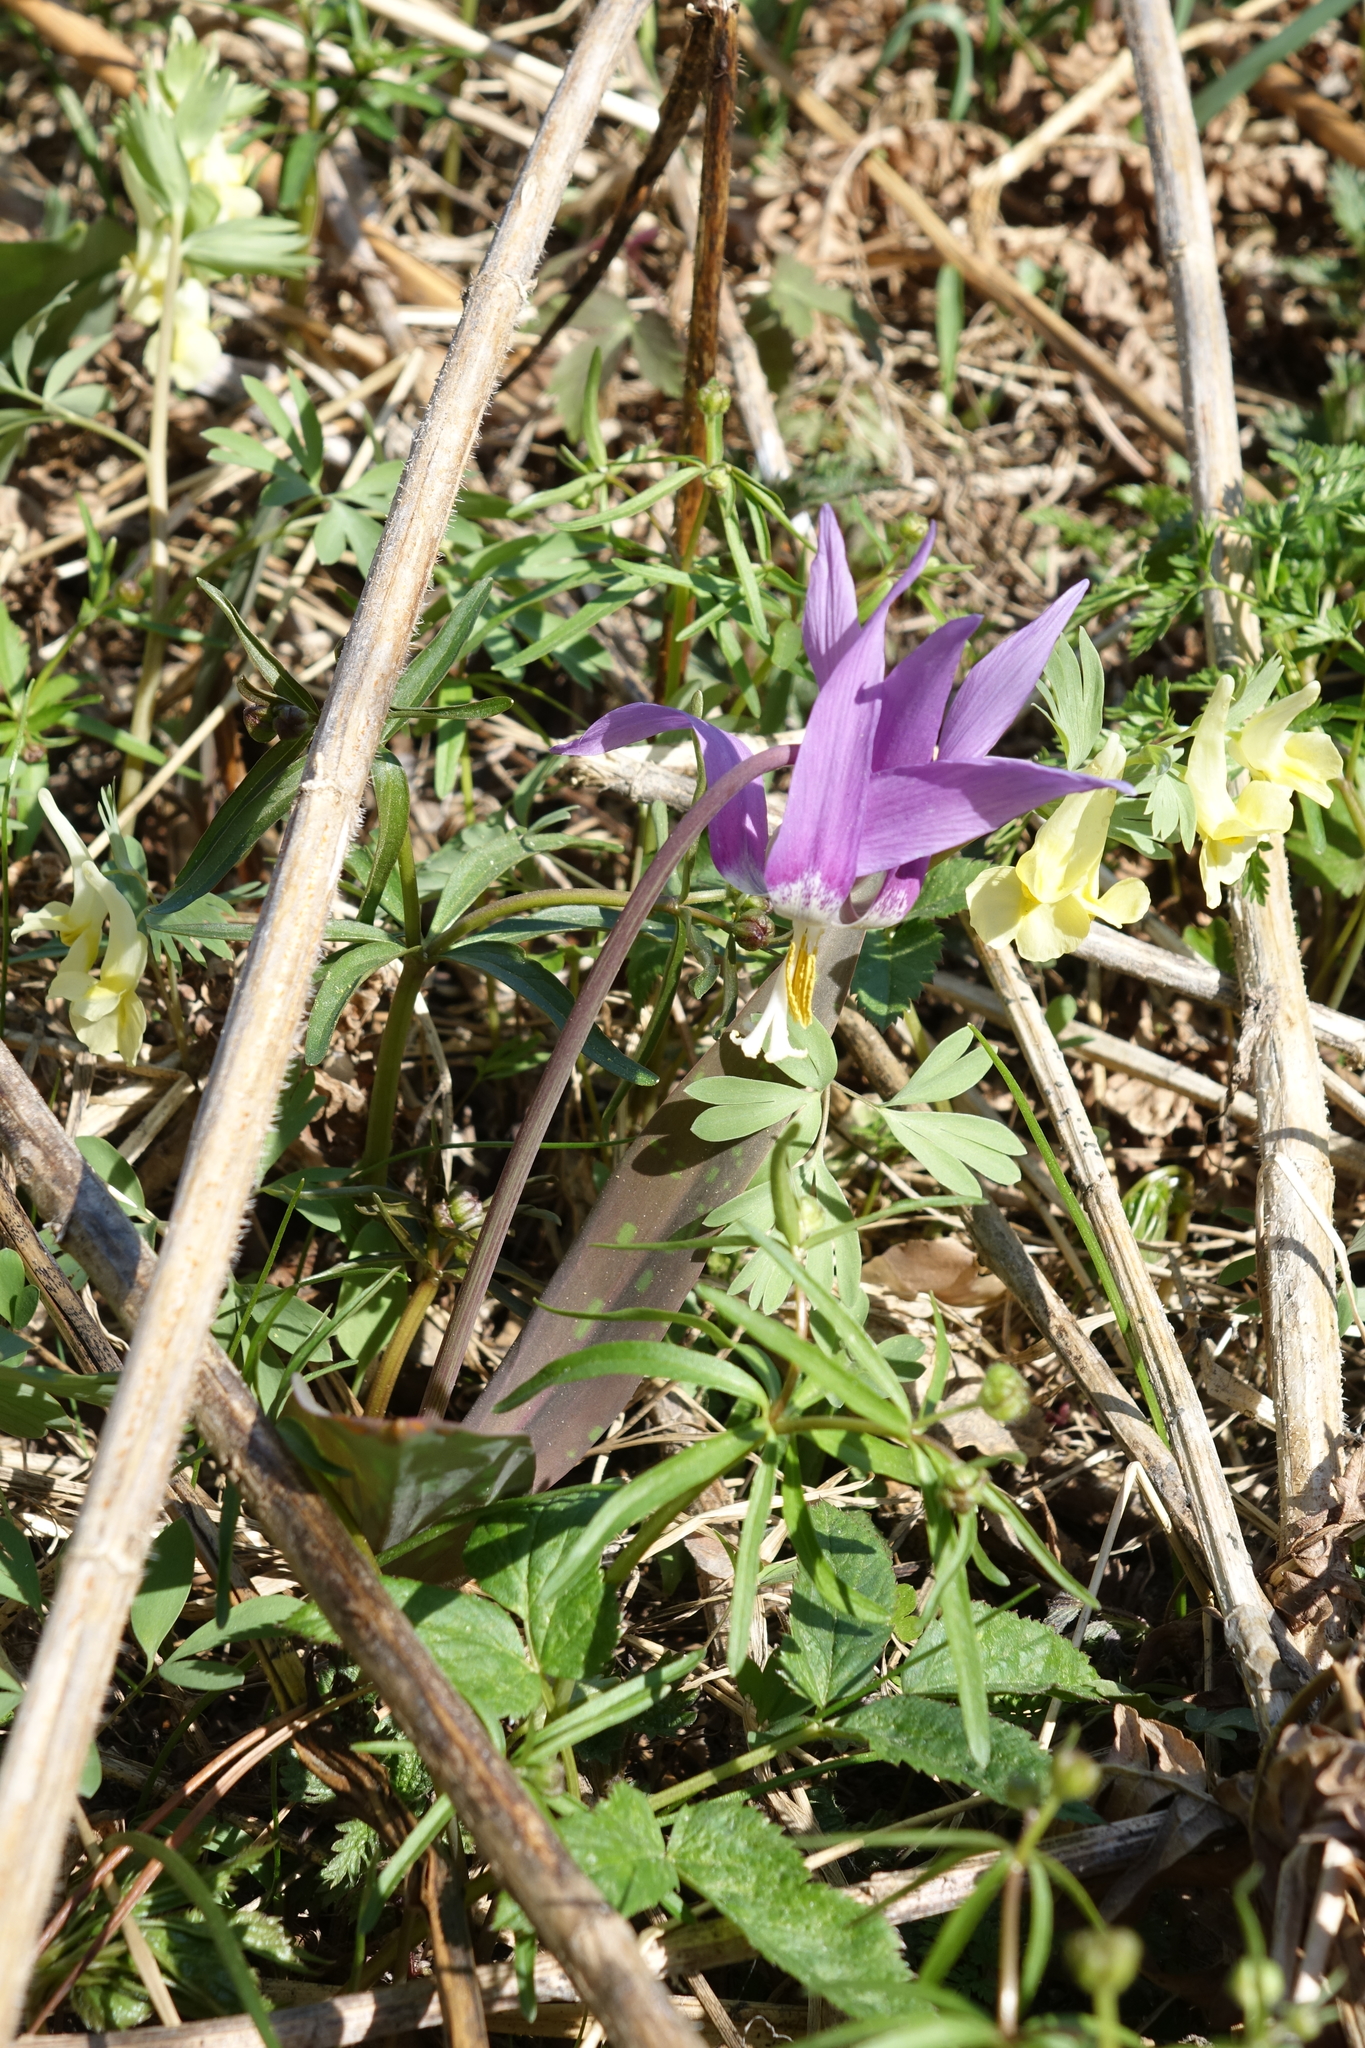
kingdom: Plantae
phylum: Tracheophyta
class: Liliopsida
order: Liliales
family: Liliaceae
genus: Erythronium
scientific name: Erythronium sibiricum
